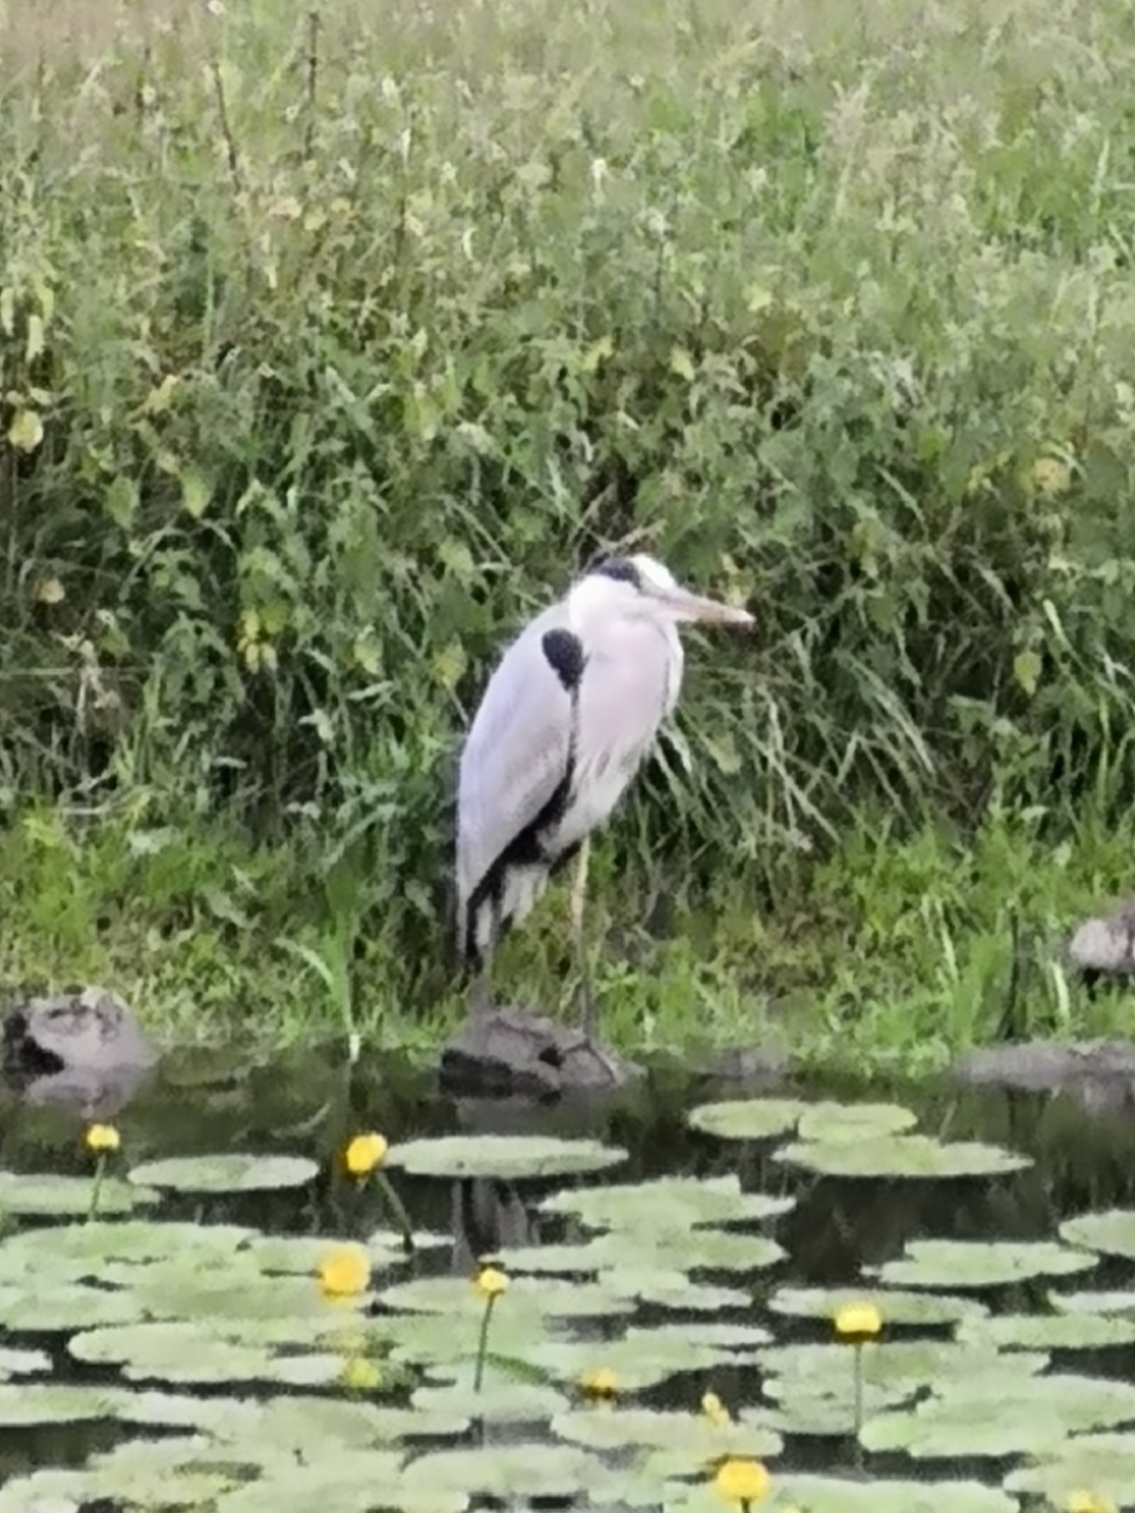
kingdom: Animalia
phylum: Chordata
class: Aves
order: Pelecaniformes
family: Ardeidae
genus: Ardea
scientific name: Ardea cinerea
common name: Grey heron
